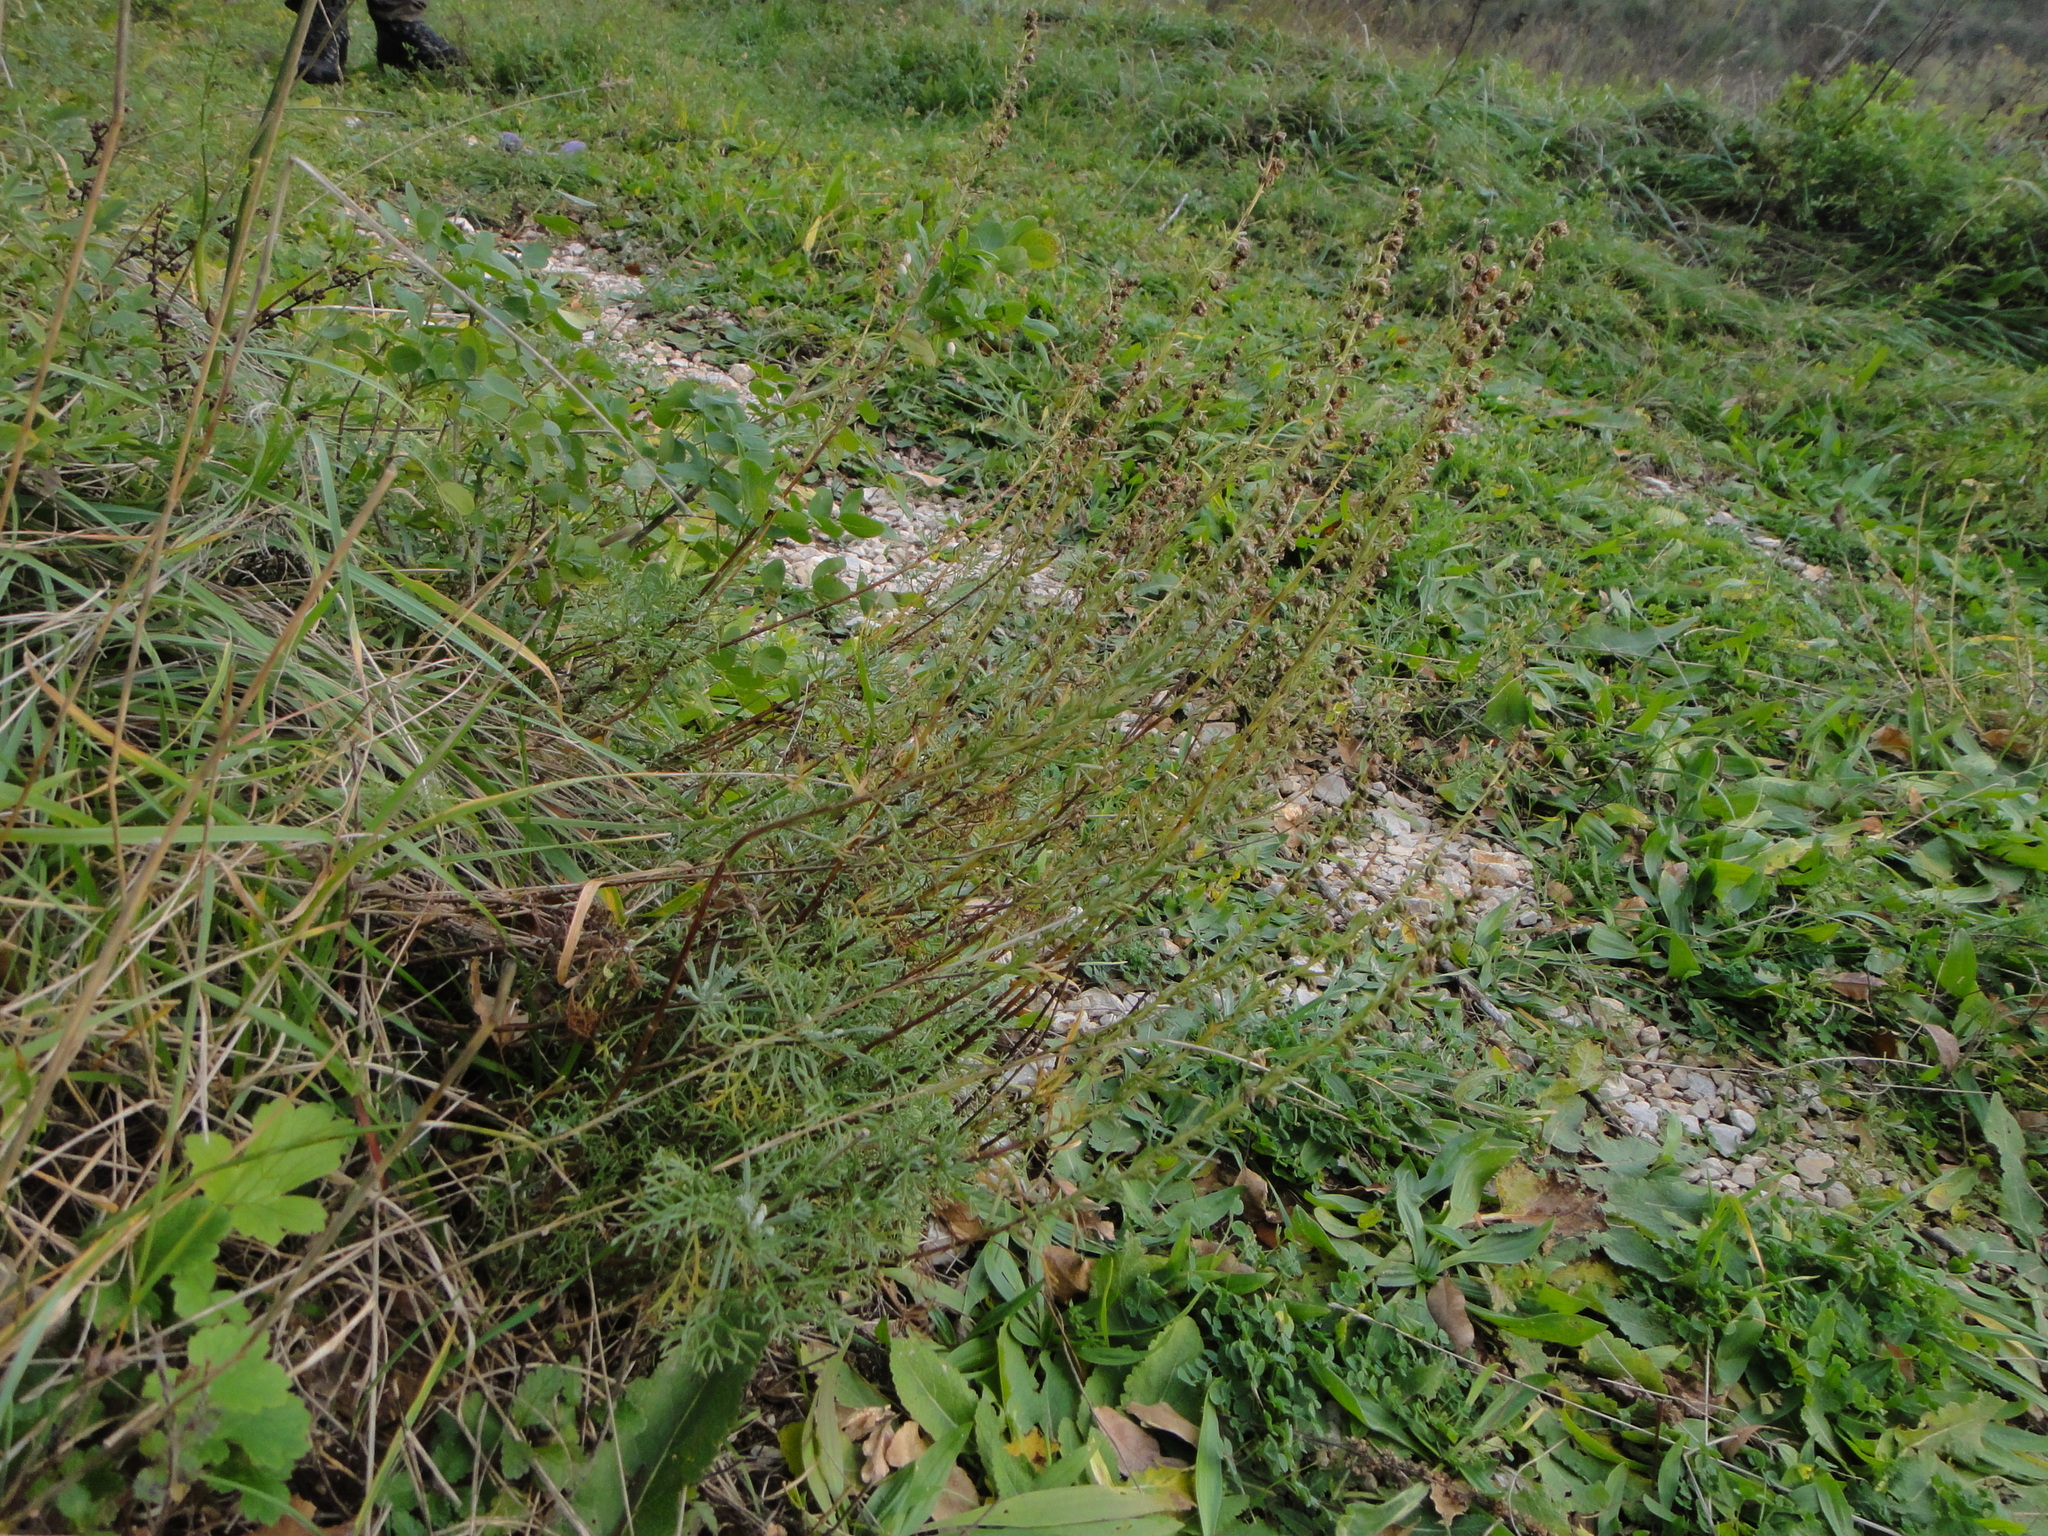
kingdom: Plantae
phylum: Tracheophyta
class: Magnoliopsida
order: Asterales
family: Asteraceae
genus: Artemisia
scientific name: Artemisia alba
